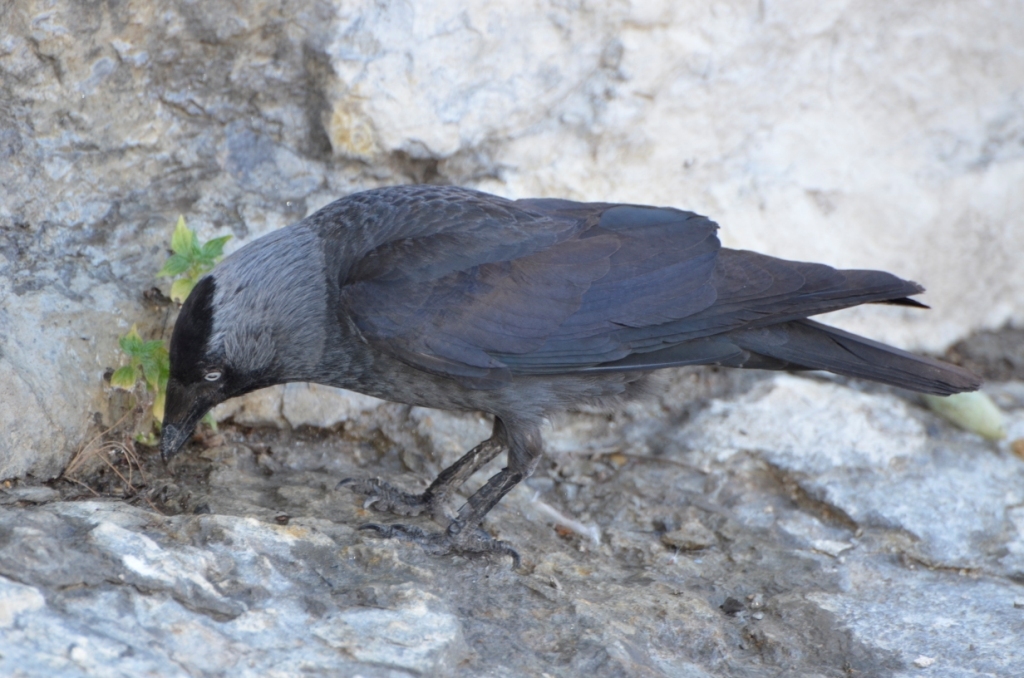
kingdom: Animalia
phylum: Chordata
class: Aves
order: Passeriformes
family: Corvidae
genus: Coloeus
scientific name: Coloeus monedula
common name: Western jackdaw
